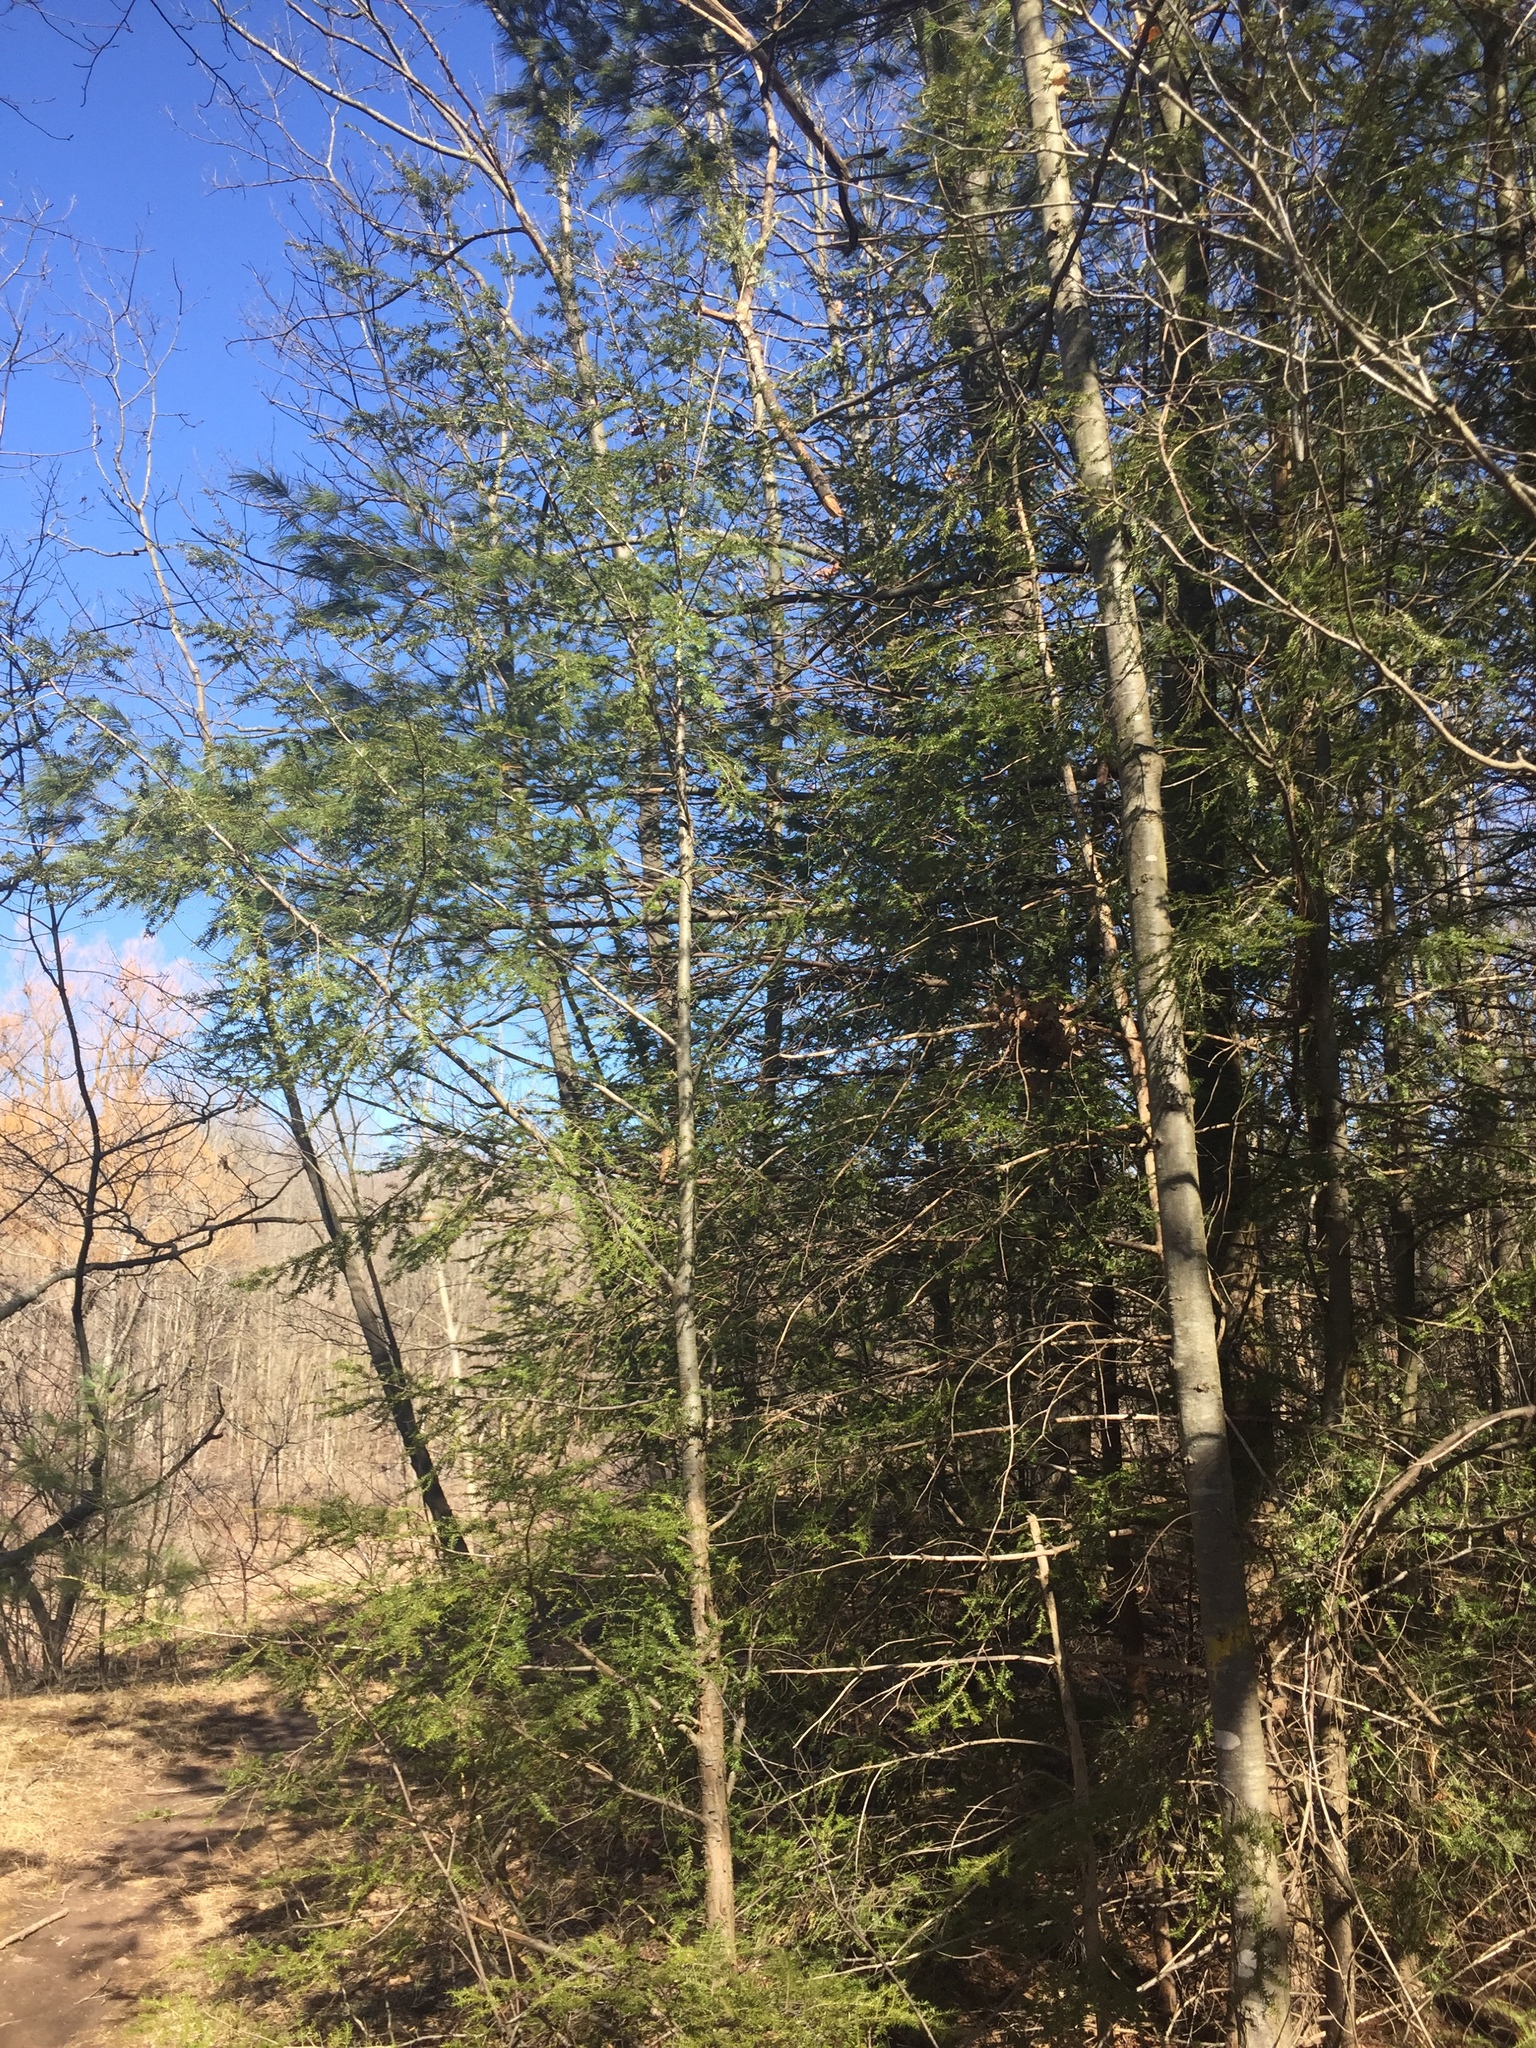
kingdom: Plantae
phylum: Tracheophyta
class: Pinopsida
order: Pinales
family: Pinaceae
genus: Tsuga
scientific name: Tsuga canadensis
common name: Eastern hemlock
